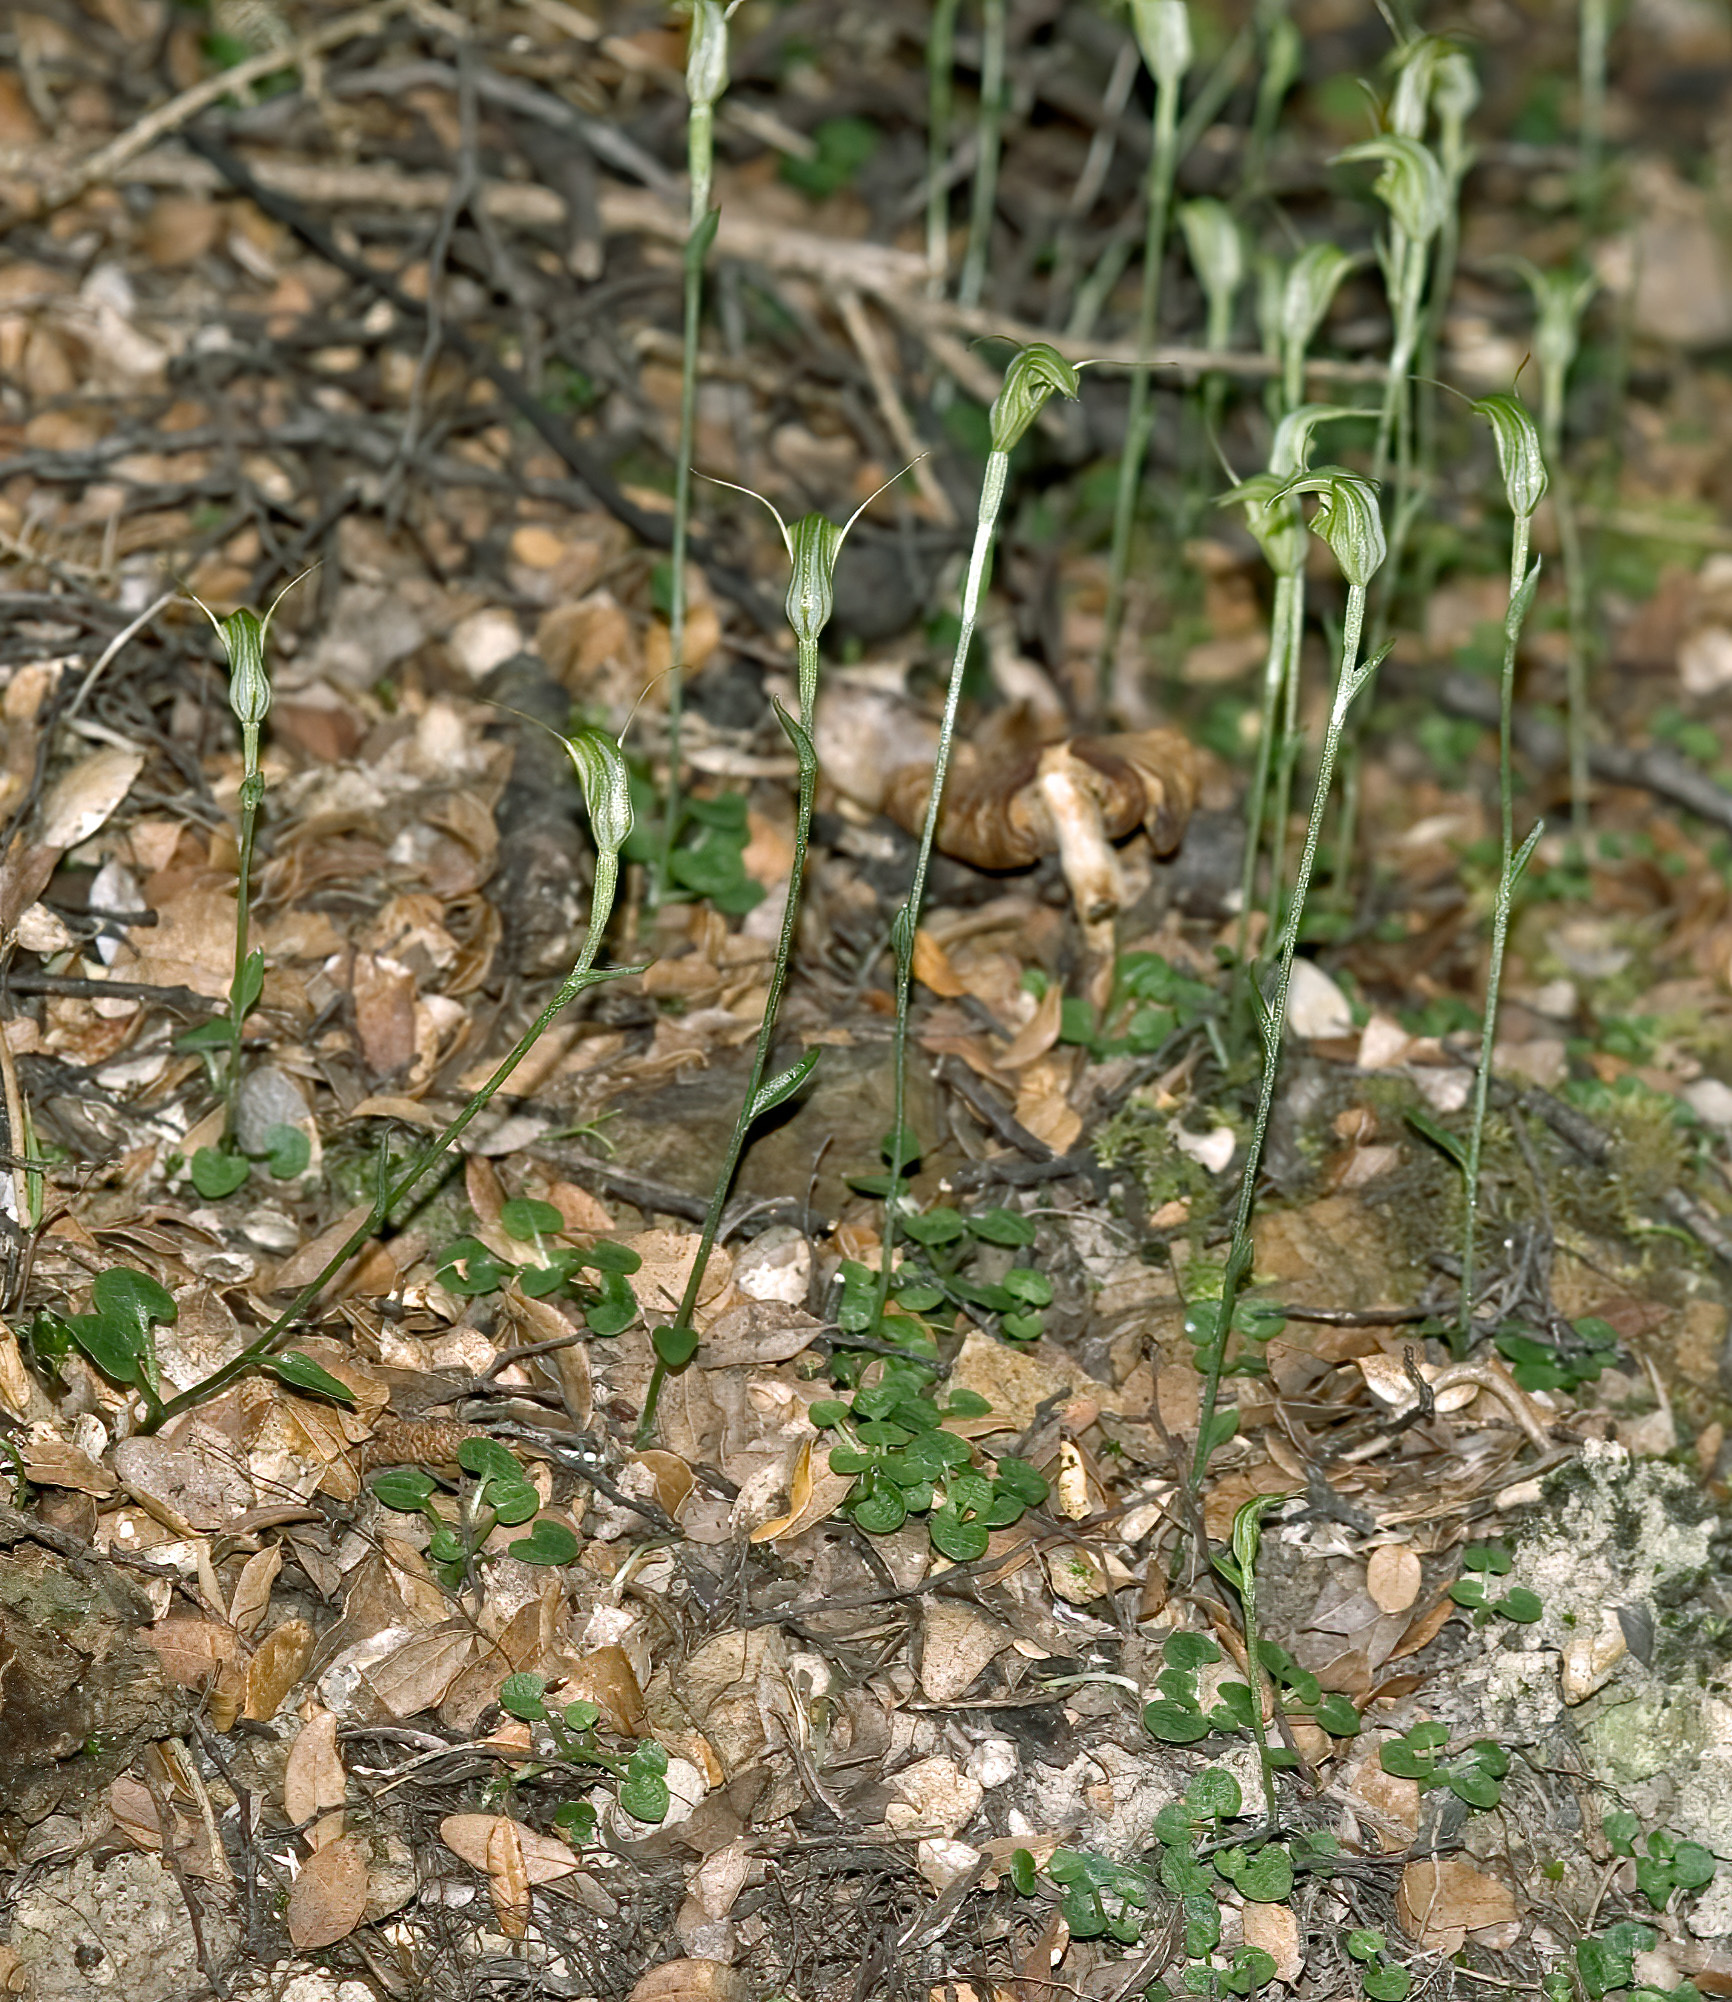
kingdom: Plantae
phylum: Tracheophyta
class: Liliopsida
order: Asparagales
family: Orchidaceae
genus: Pterostylis
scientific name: Pterostylis trullifolia
